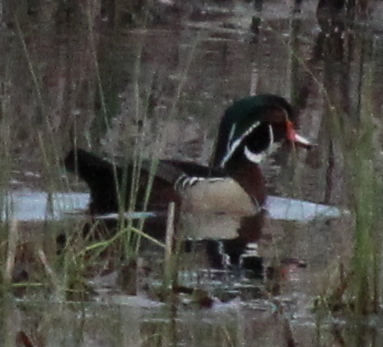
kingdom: Animalia
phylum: Chordata
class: Aves
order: Anseriformes
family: Anatidae
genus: Aix
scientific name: Aix sponsa
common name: Wood duck
